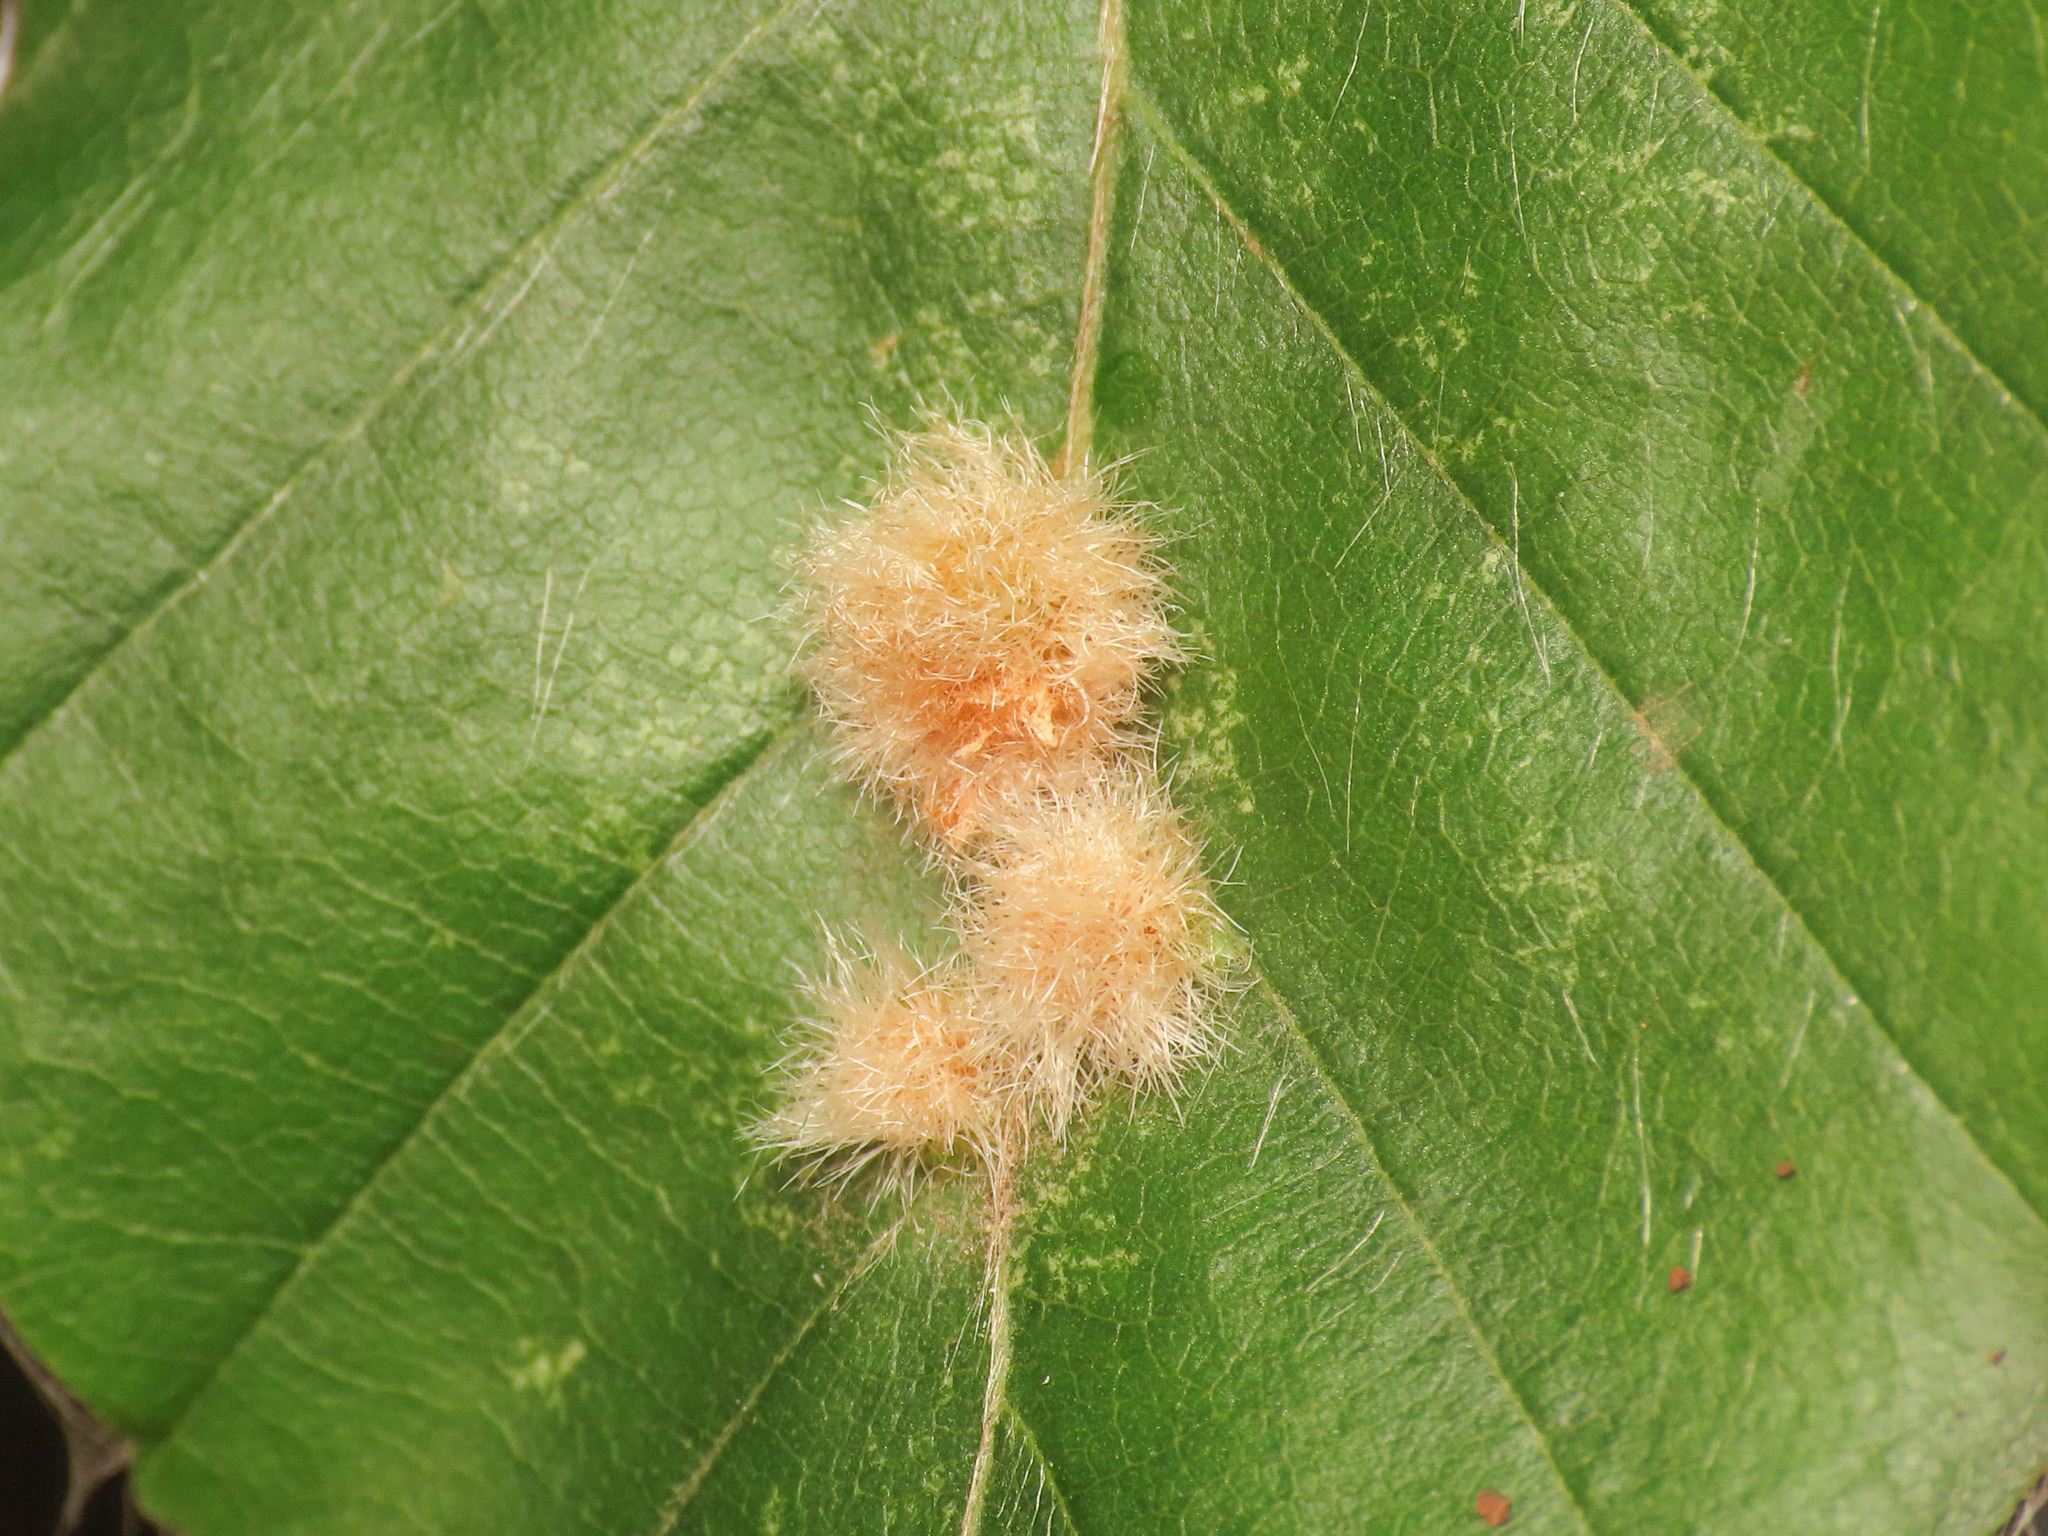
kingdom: Animalia
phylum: Arthropoda
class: Insecta
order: Diptera
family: Cecidomyiidae
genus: Hartigiola
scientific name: Hartigiola annulipes
